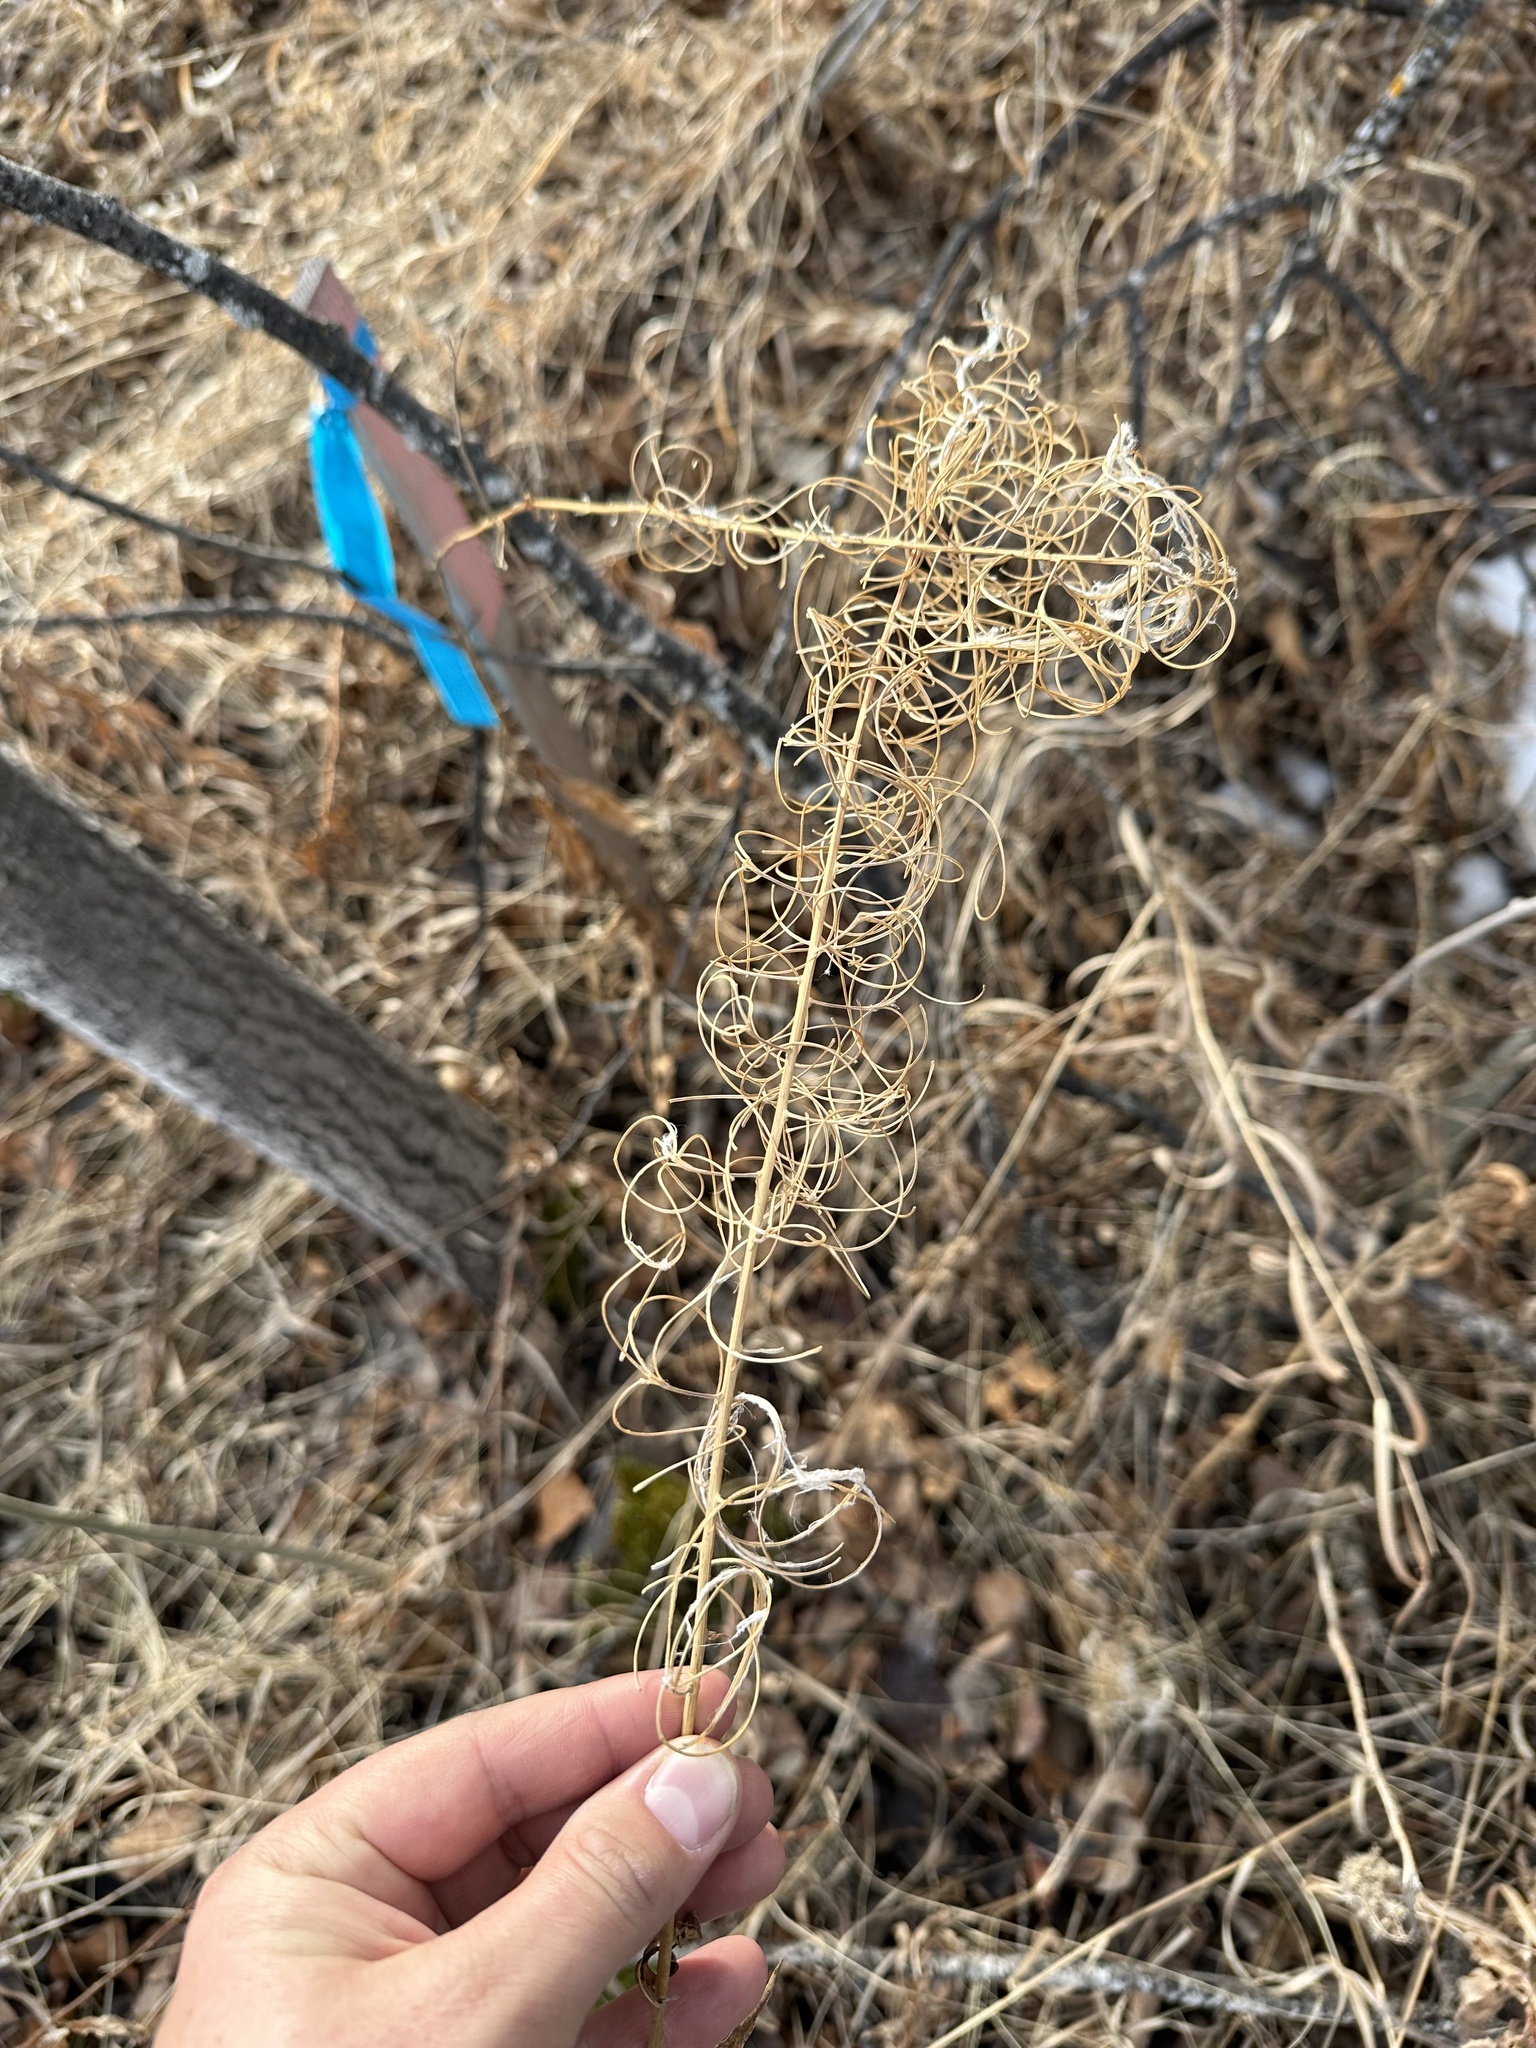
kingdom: Plantae
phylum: Tracheophyta
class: Magnoliopsida
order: Myrtales
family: Onagraceae
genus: Chamaenerion
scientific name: Chamaenerion angustifolium
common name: Fireweed
